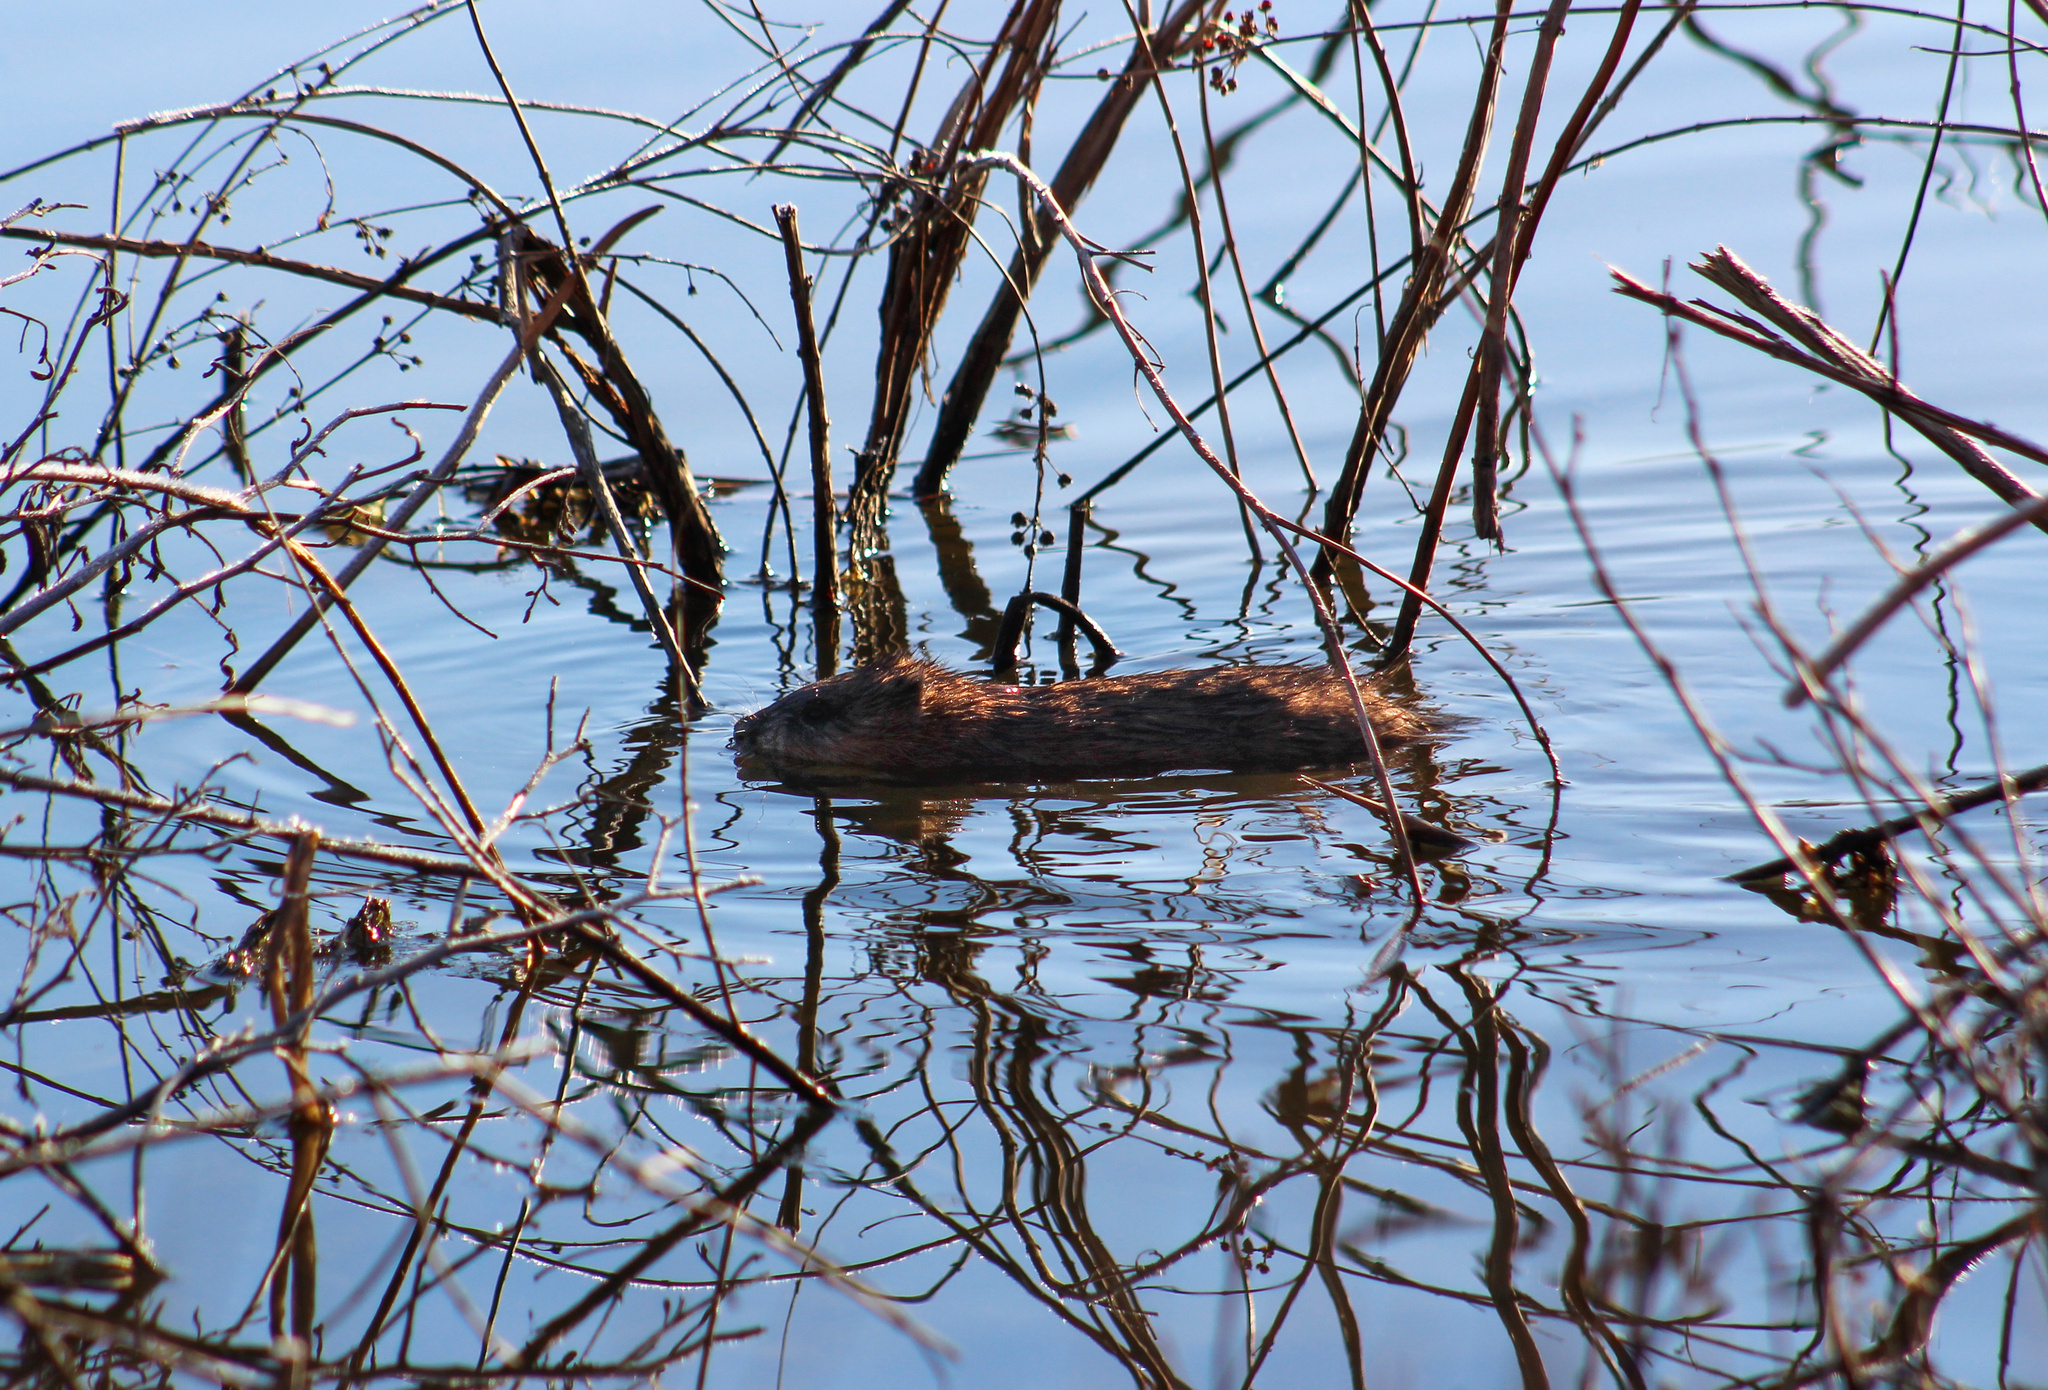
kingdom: Animalia
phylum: Chordata
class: Mammalia
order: Rodentia
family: Cricetidae
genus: Ondatra
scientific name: Ondatra zibethicus
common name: Muskrat
